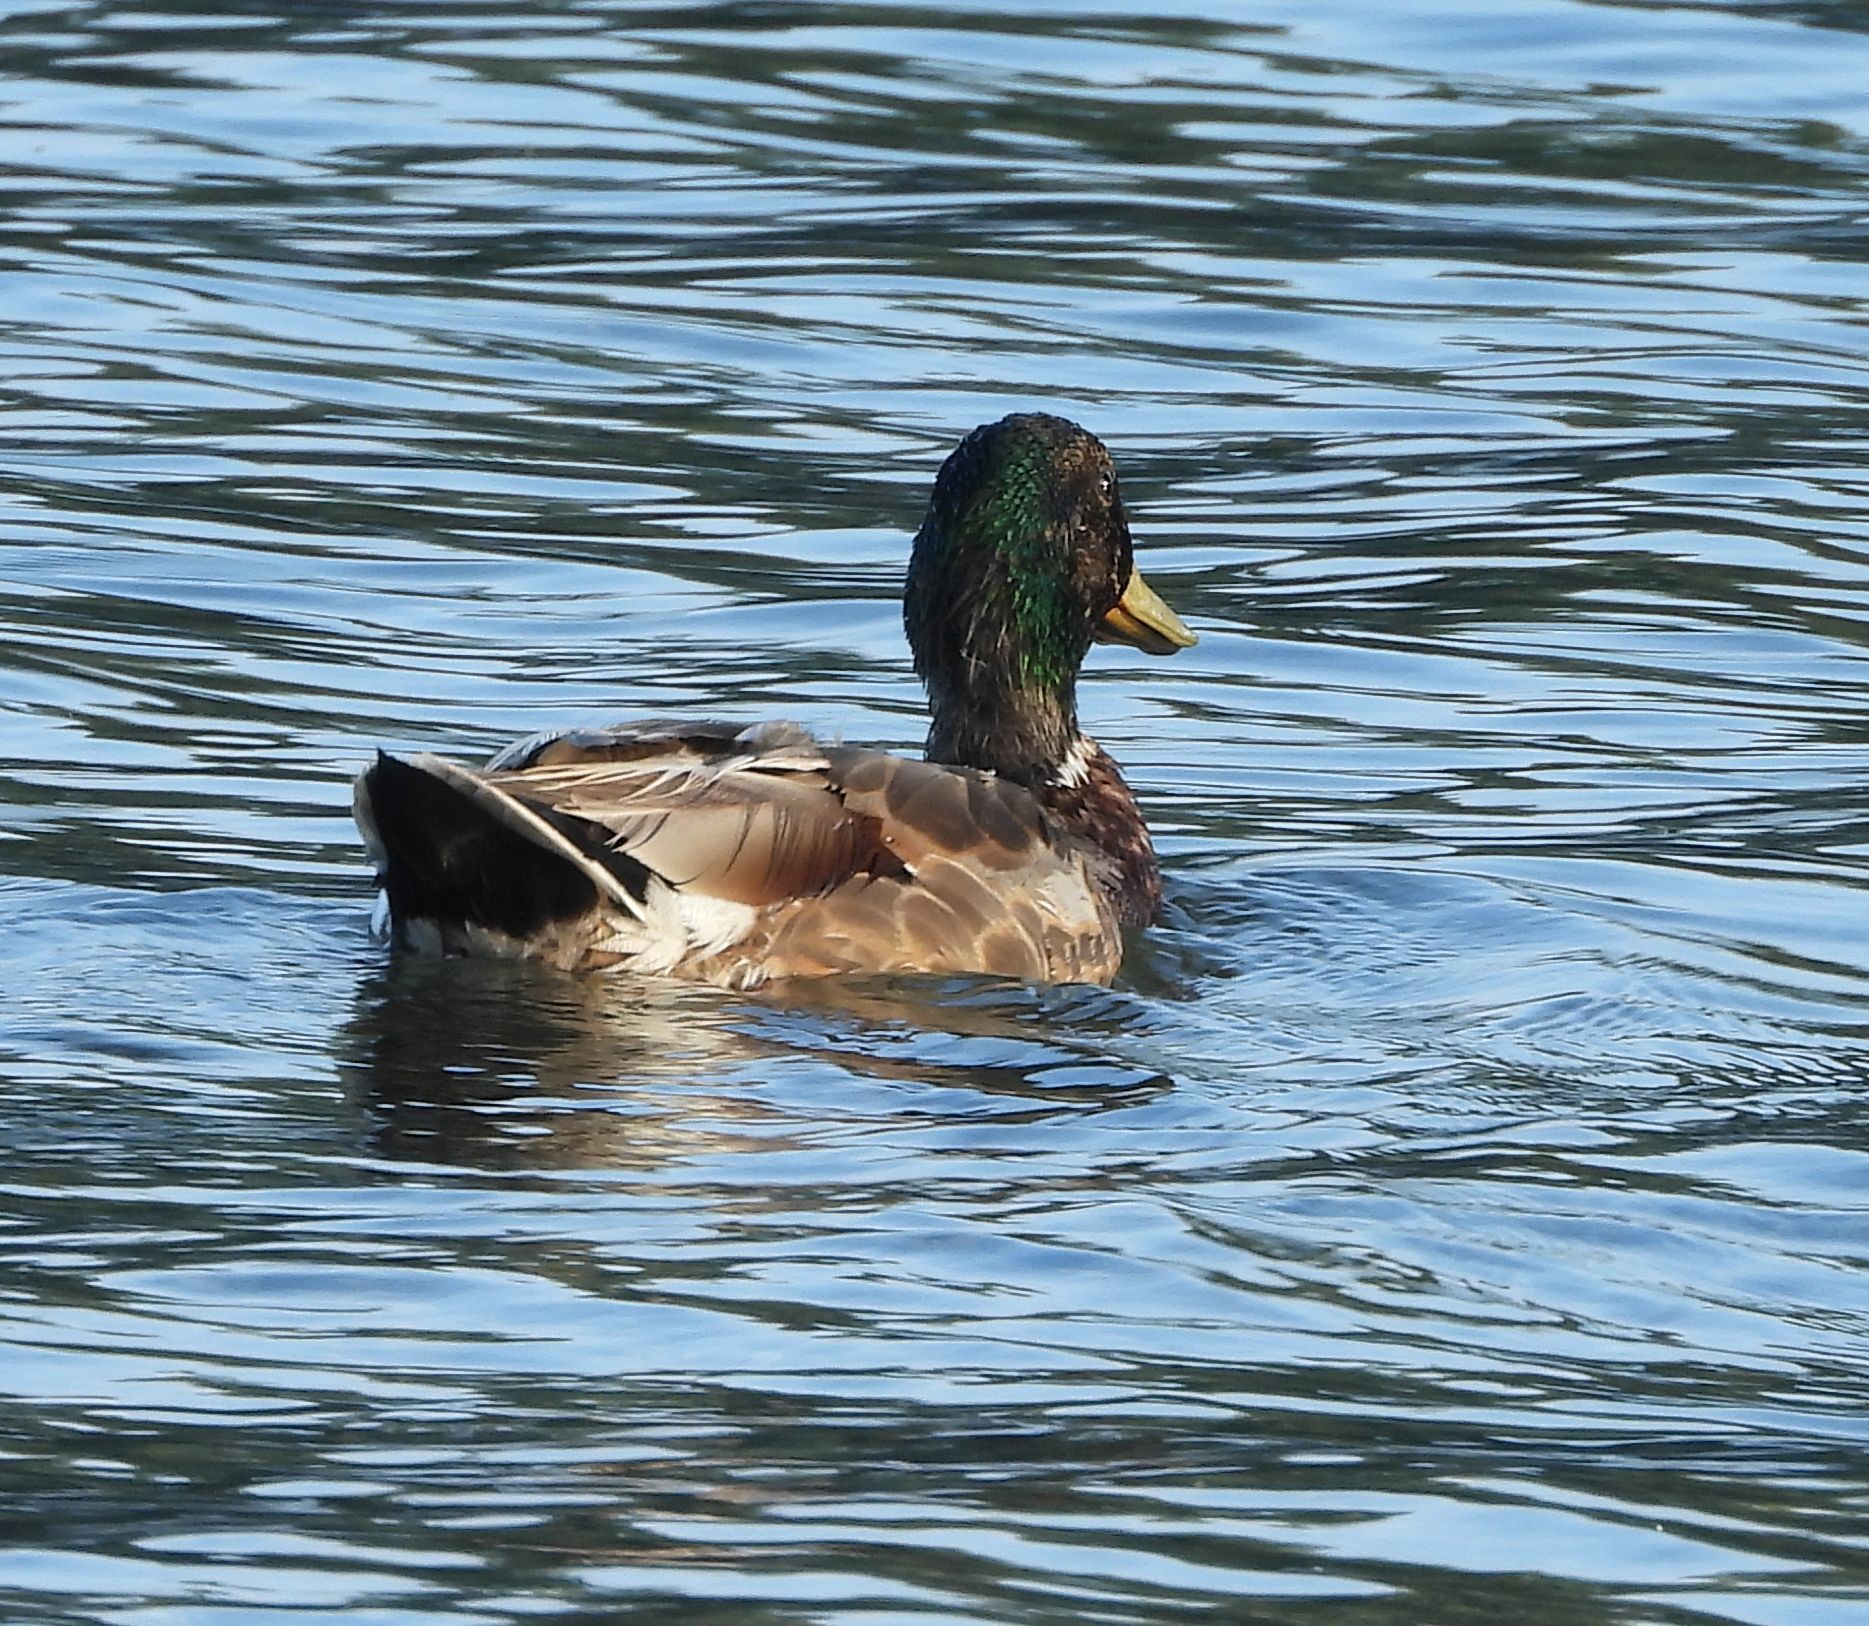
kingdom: Animalia
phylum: Chordata
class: Aves
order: Anseriformes
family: Anatidae
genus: Anas
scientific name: Anas platyrhynchos
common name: Mallard
